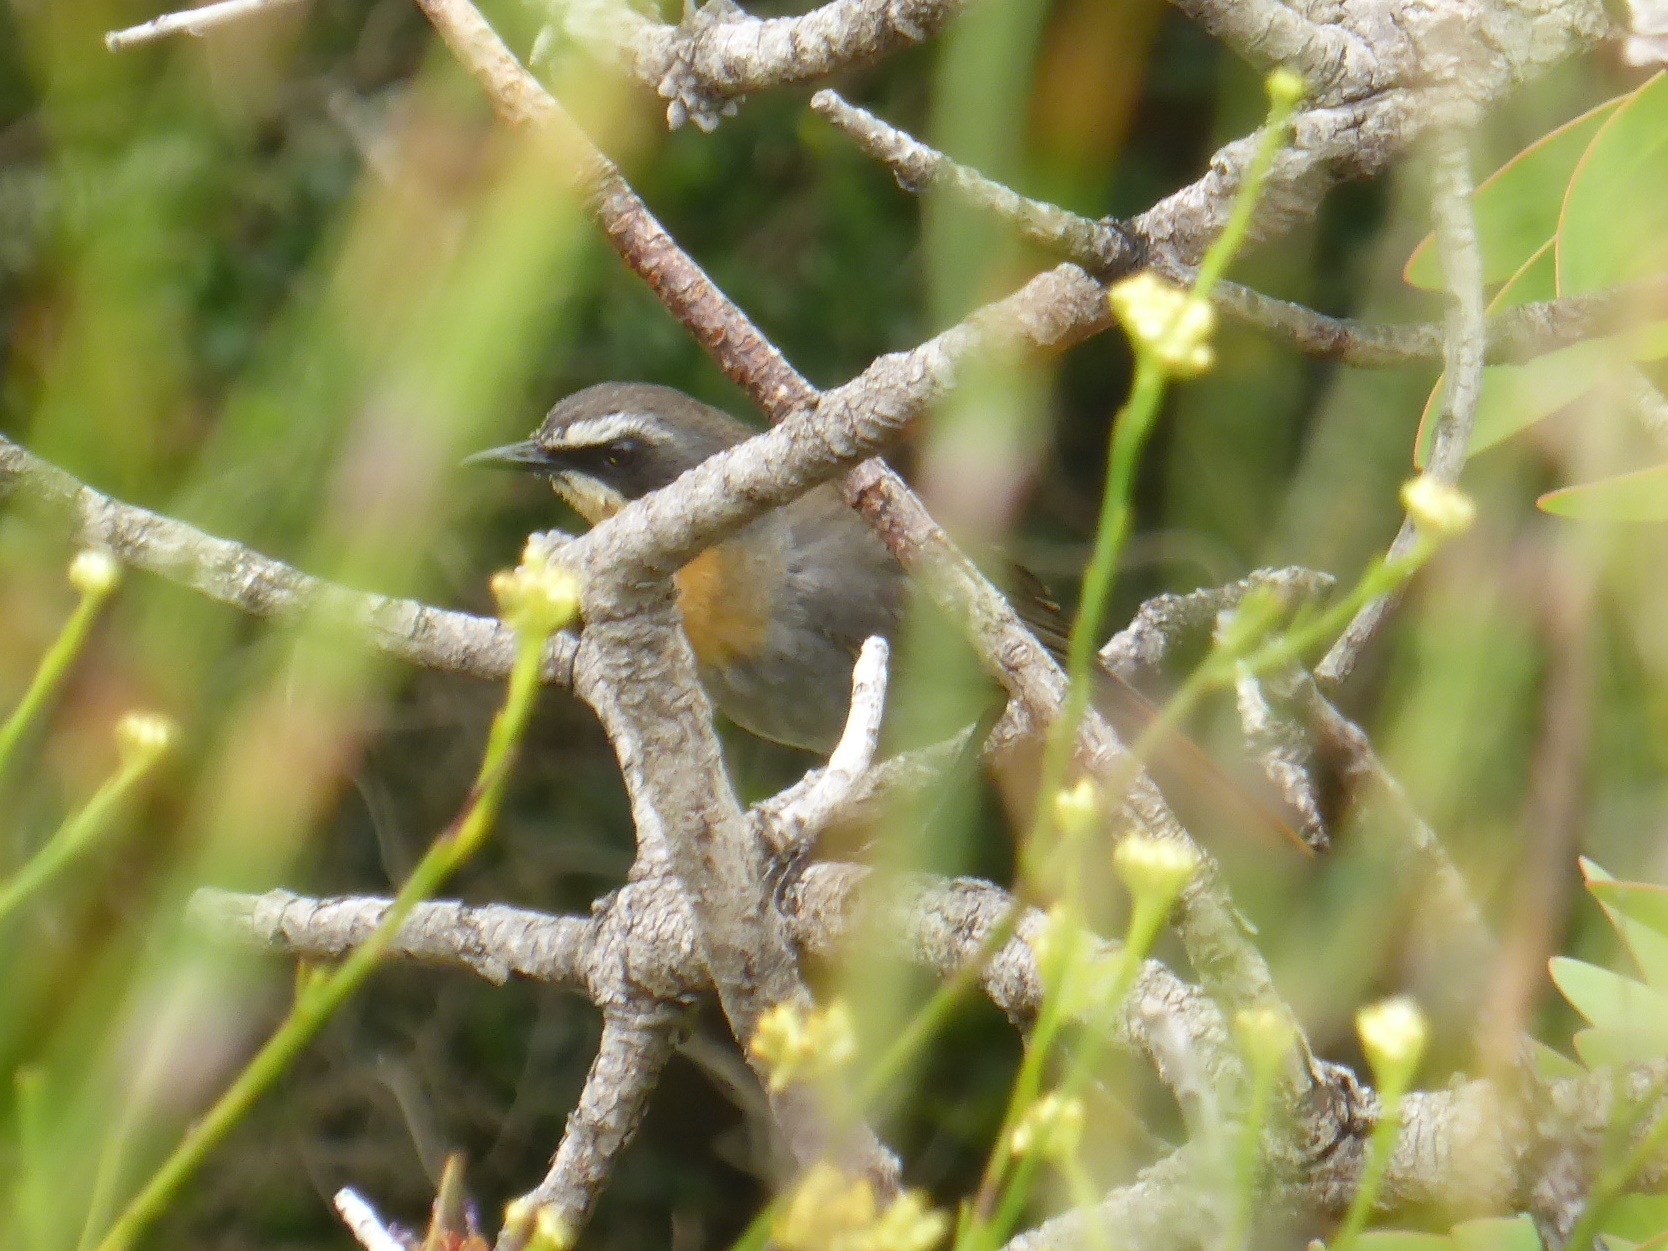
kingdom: Animalia
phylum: Chordata
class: Aves
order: Passeriformes
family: Muscicapidae
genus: Cossypha
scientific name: Cossypha caffra
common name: Cape robin-chat
